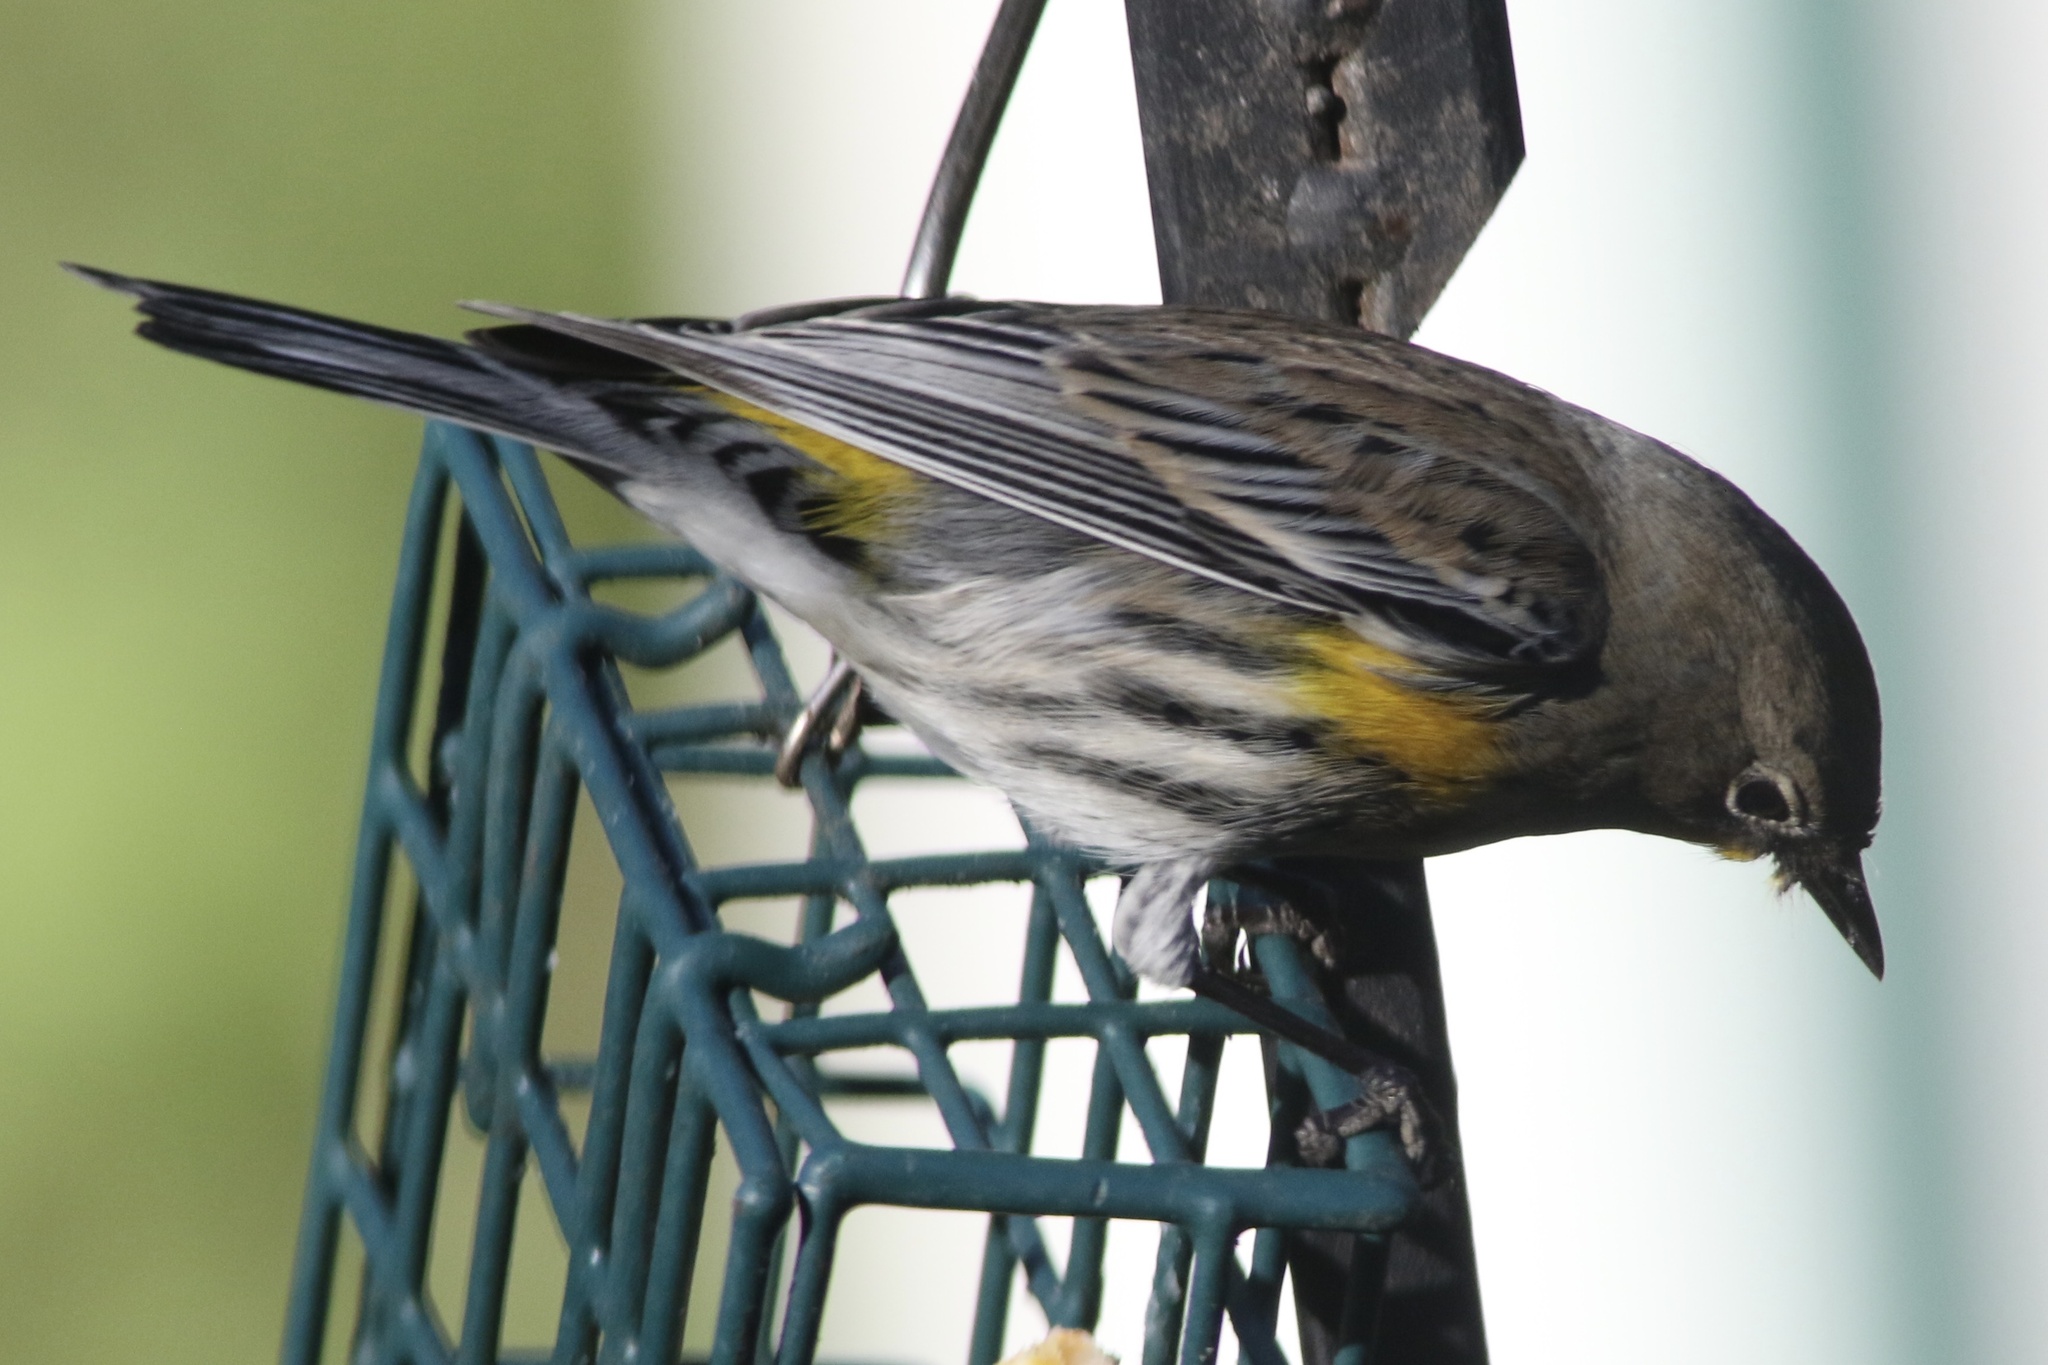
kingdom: Animalia
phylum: Chordata
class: Aves
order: Passeriformes
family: Parulidae
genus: Setophaga
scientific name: Setophaga coronata
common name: Myrtle warbler
